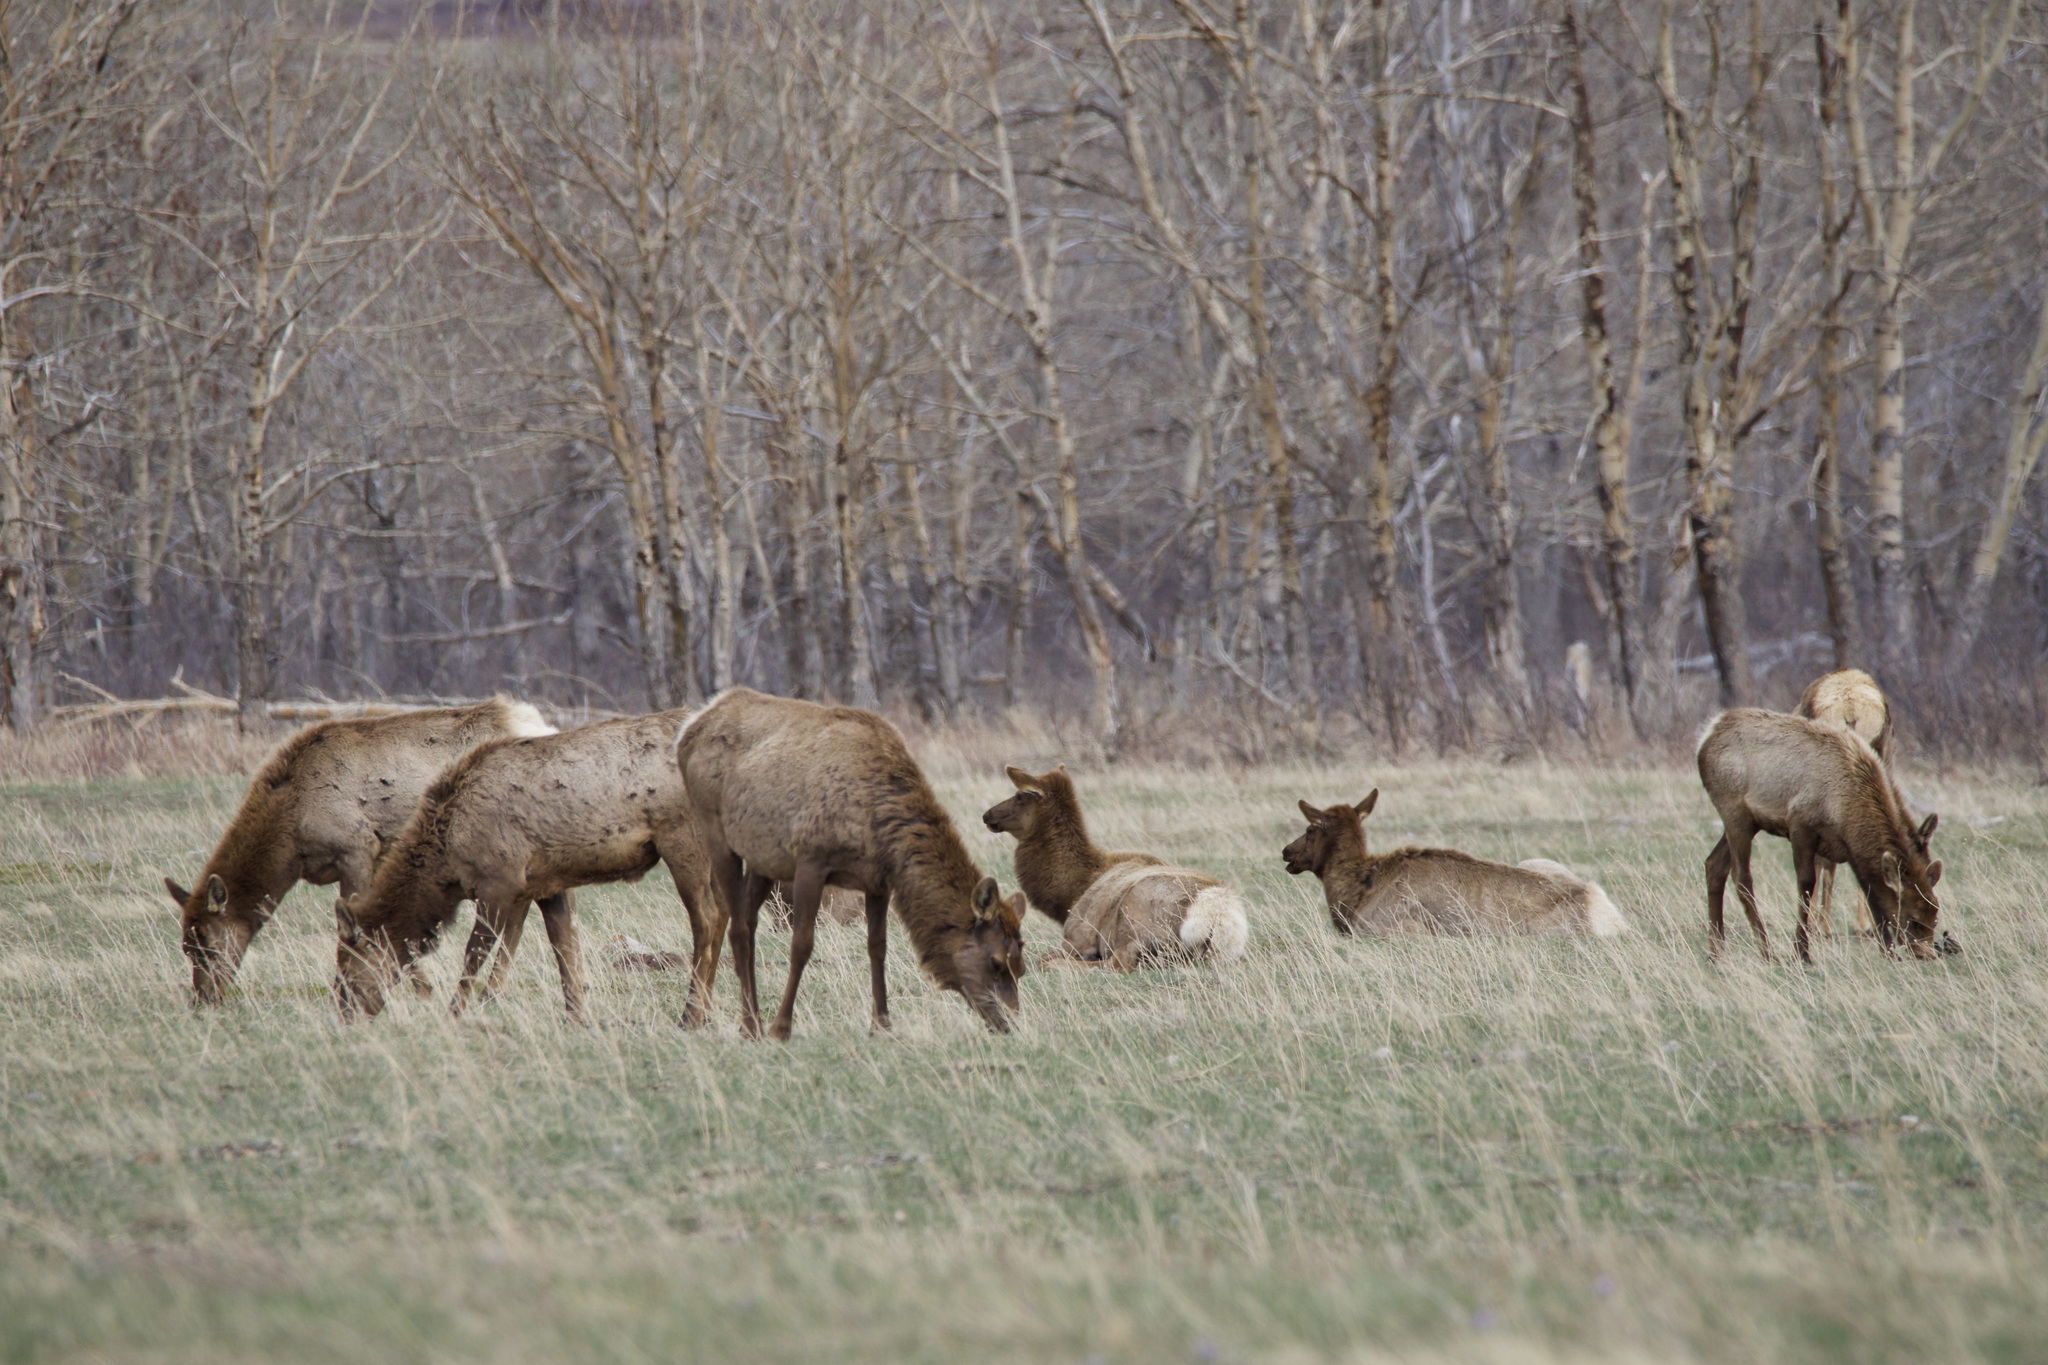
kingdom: Animalia
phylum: Chordata
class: Mammalia
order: Artiodactyla
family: Cervidae
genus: Cervus
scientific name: Cervus elaphus
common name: Red deer
